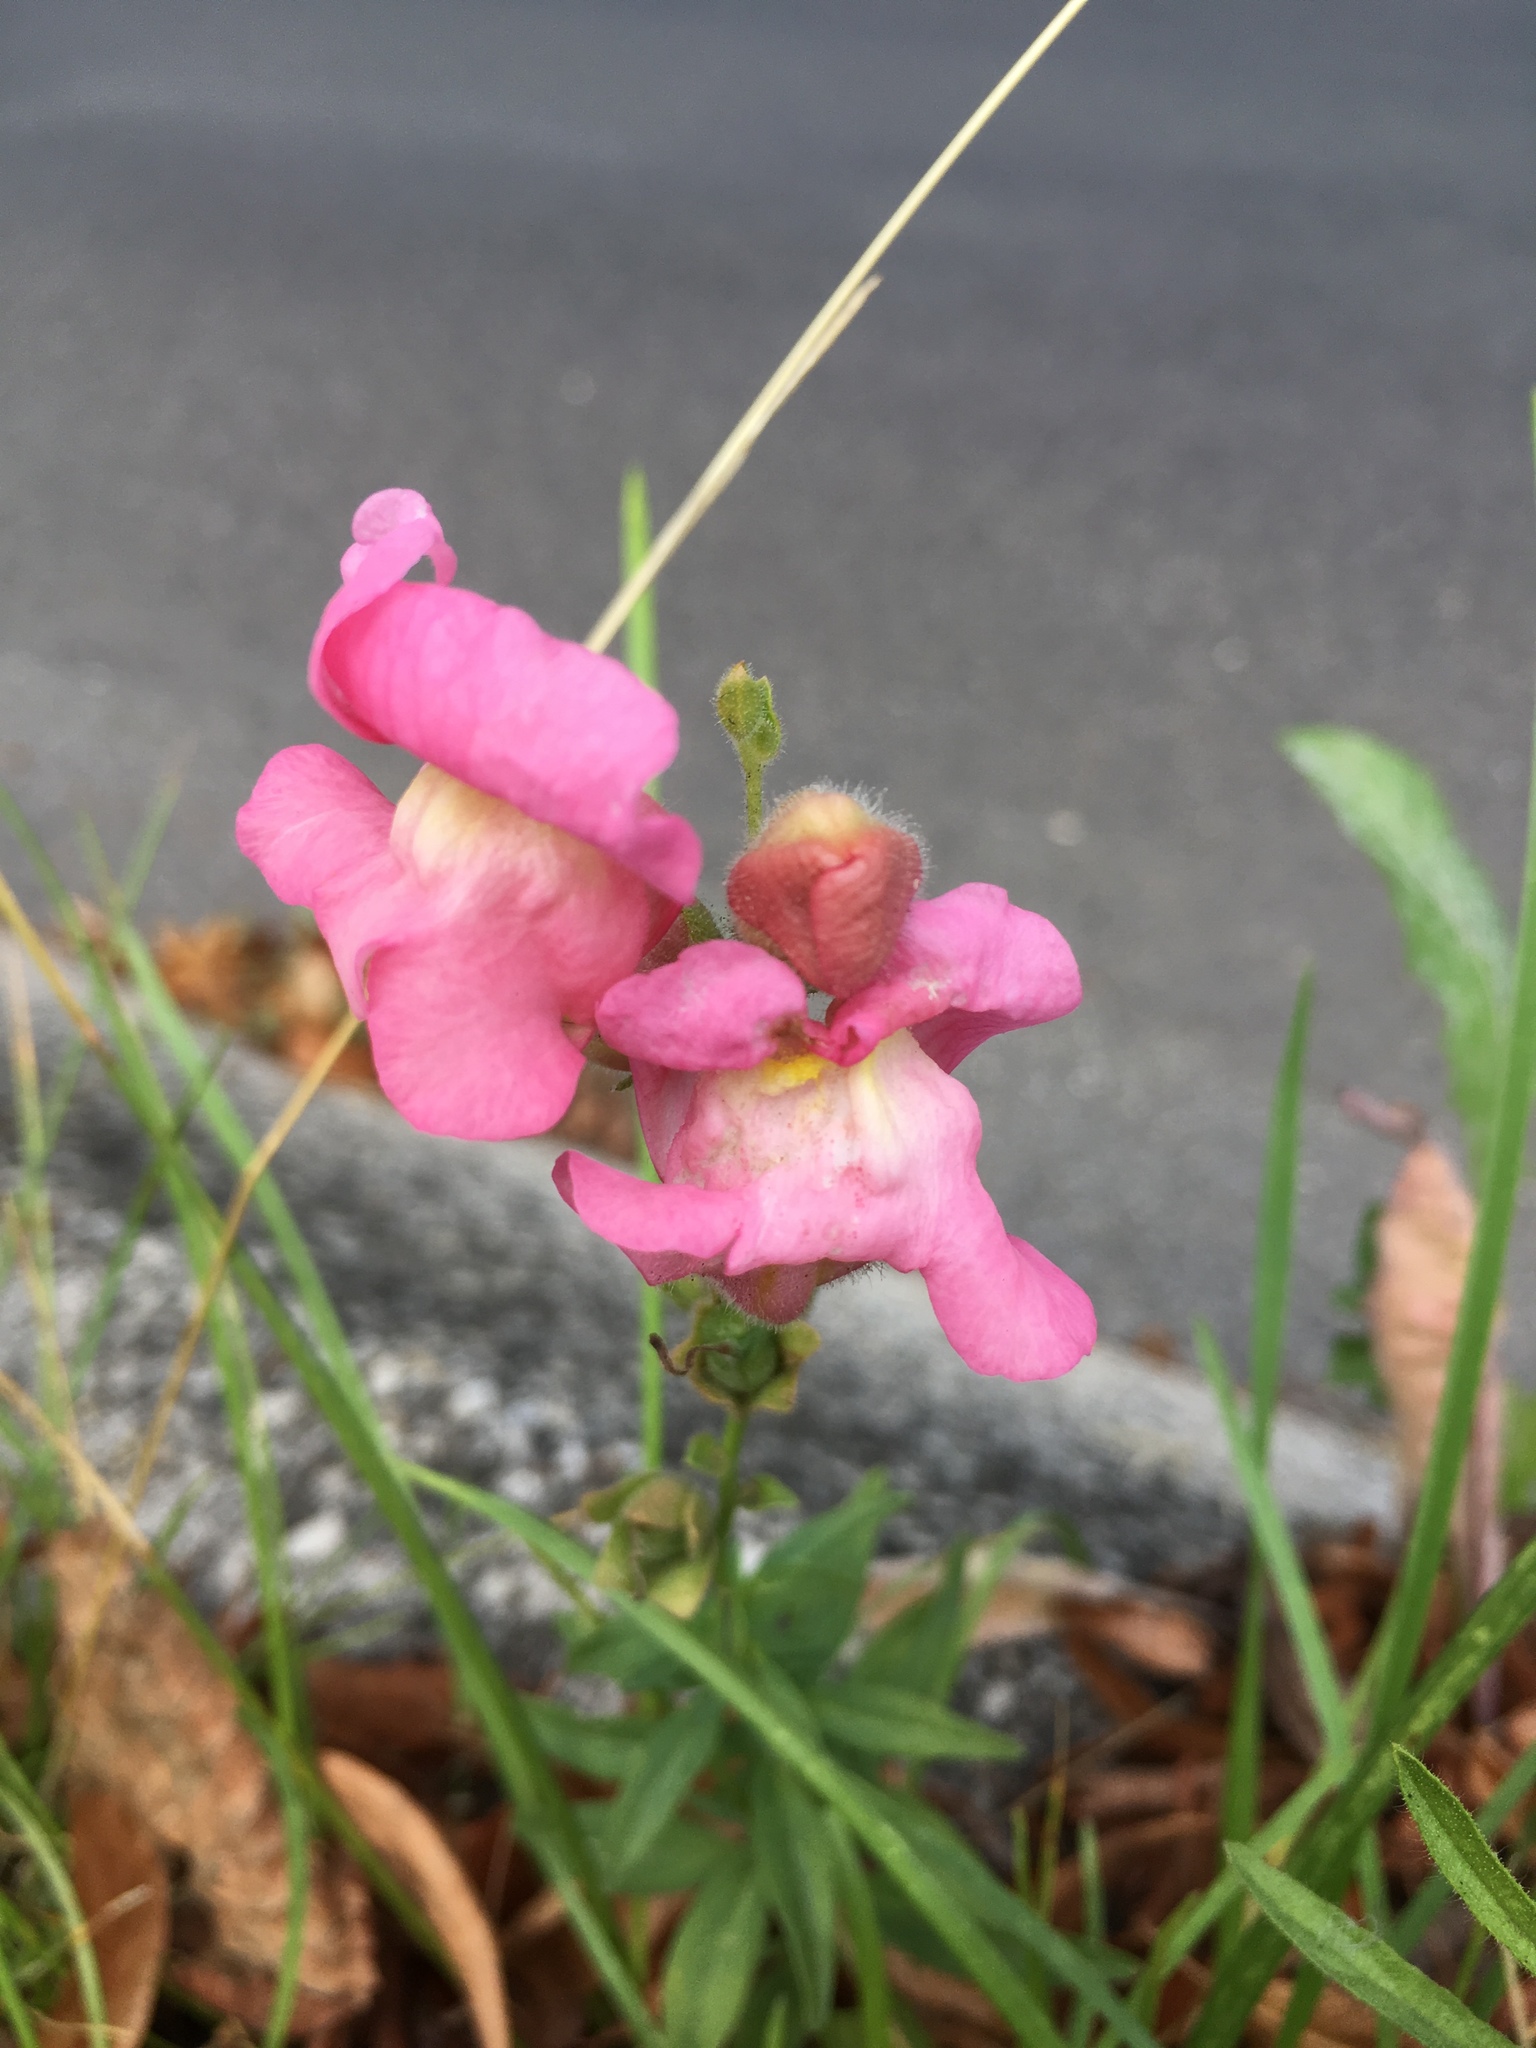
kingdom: Plantae
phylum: Tracheophyta
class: Magnoliopsida
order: Lamiales
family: Plantaginaceae
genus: Antirrhinum
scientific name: Antirrhinum majus
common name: Snapdragon
